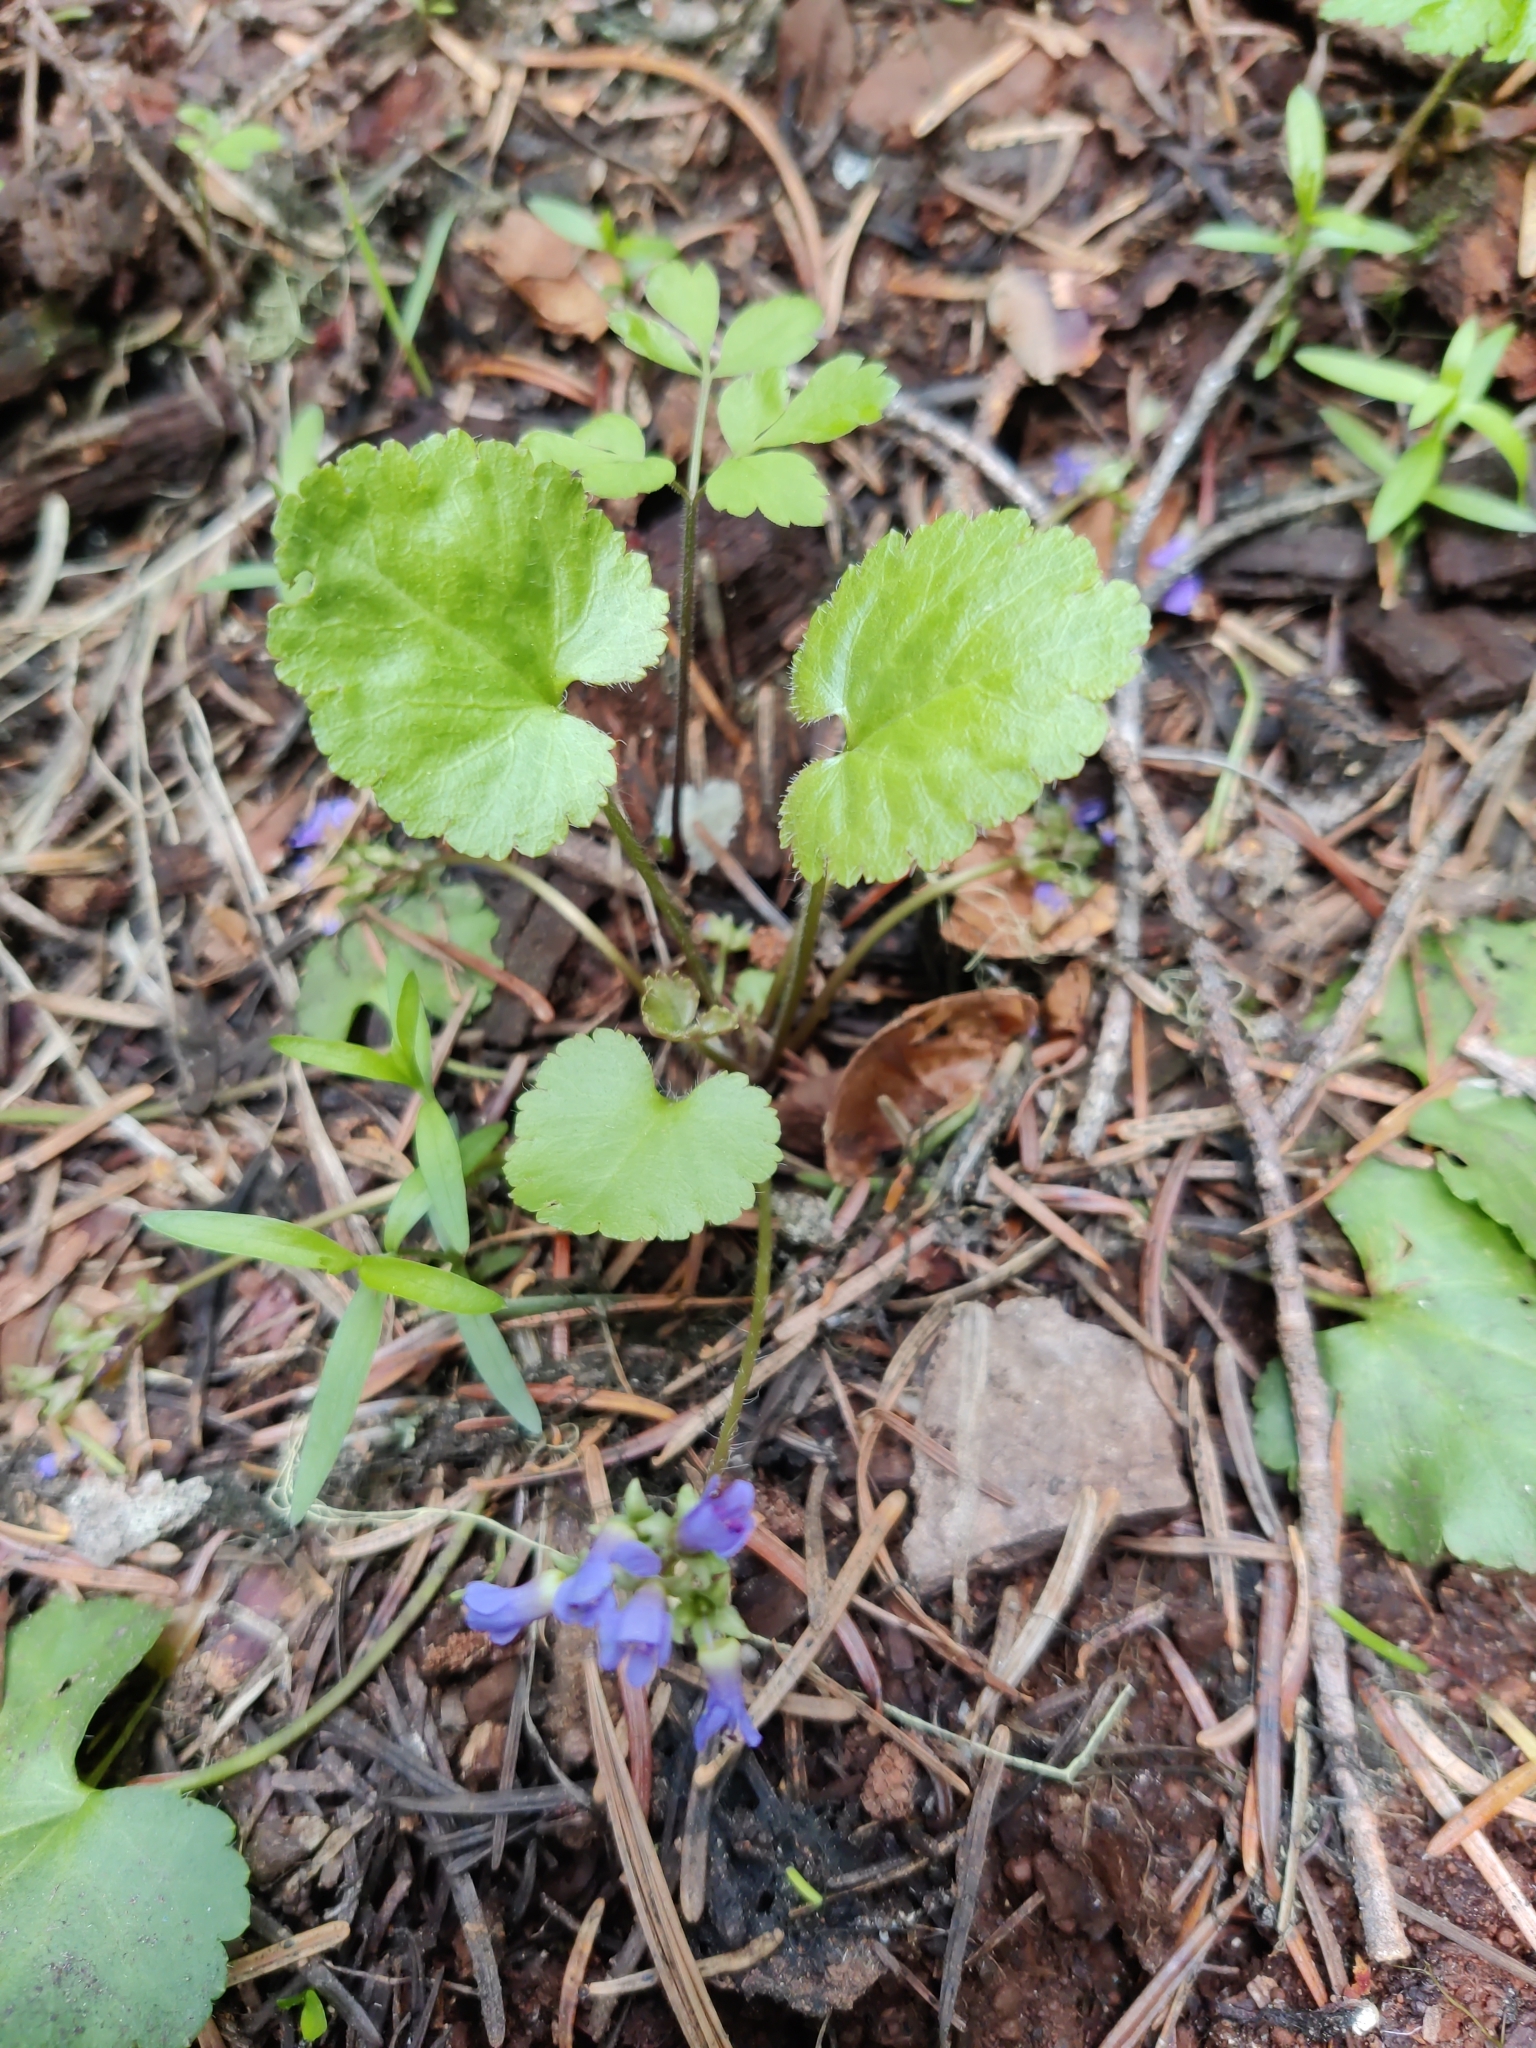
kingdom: Plantae
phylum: Tracheophyta
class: Magnoliopsida
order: Lamiales
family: Plantaginaceae
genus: Synthyris
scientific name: Synthyris reniformis
